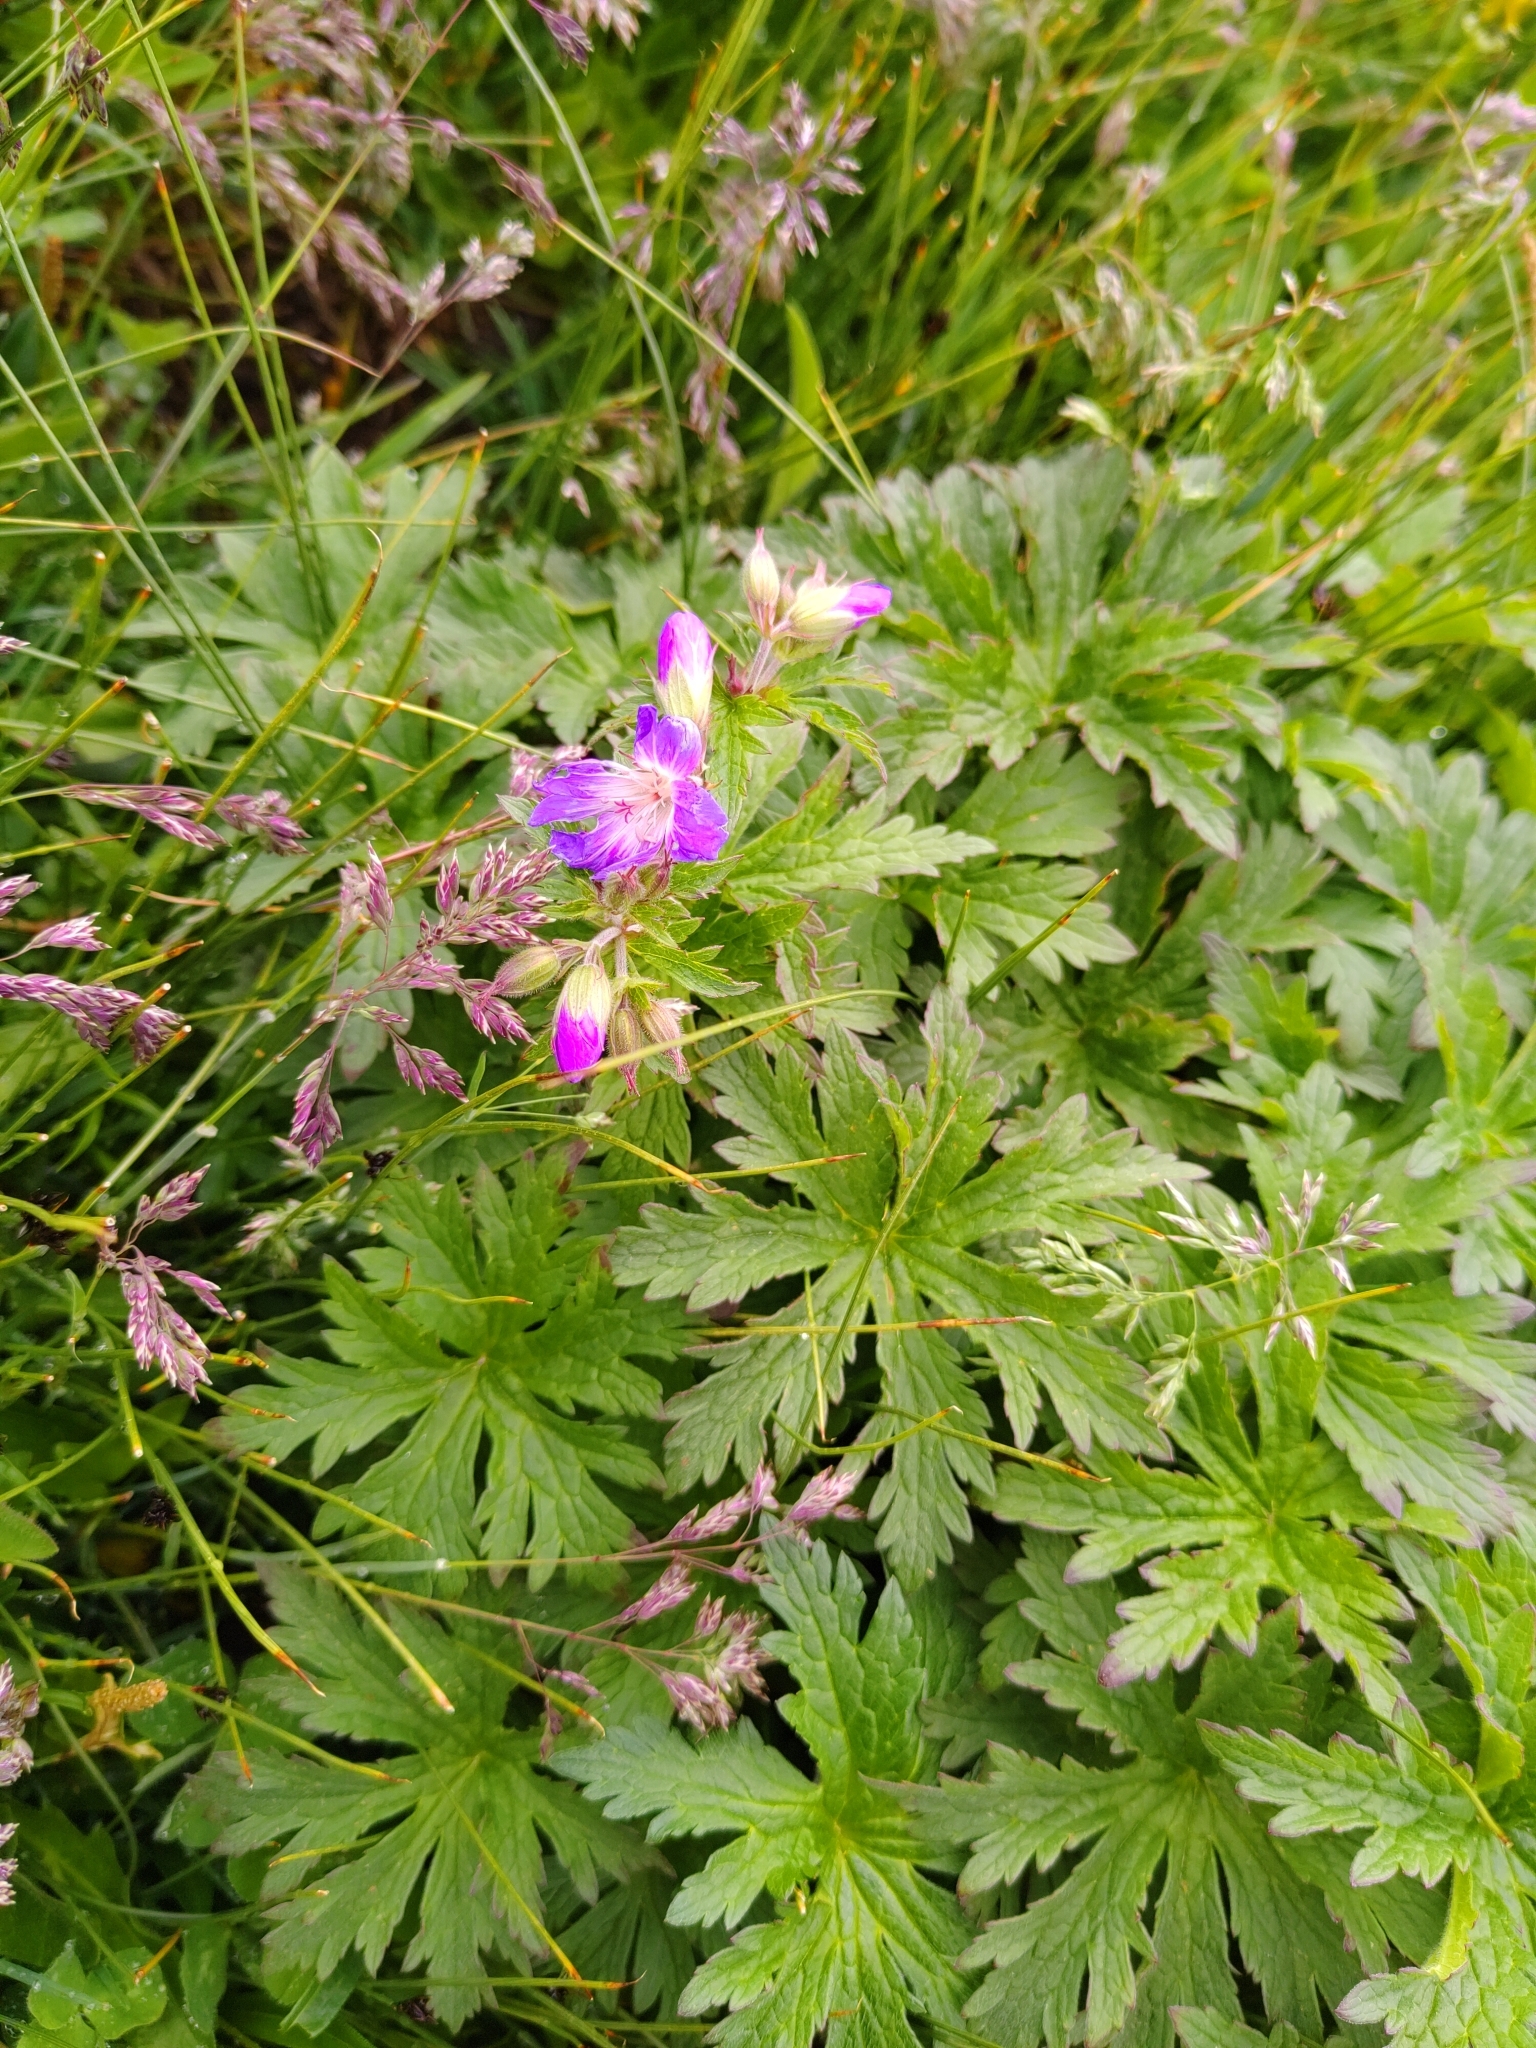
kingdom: Plantae
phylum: Tracheophyta
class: Magnoliopsida
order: Geraniales
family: Geraniaceae
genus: Geranium
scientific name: Geranium sylvaticum
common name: Wood crane's-bill
